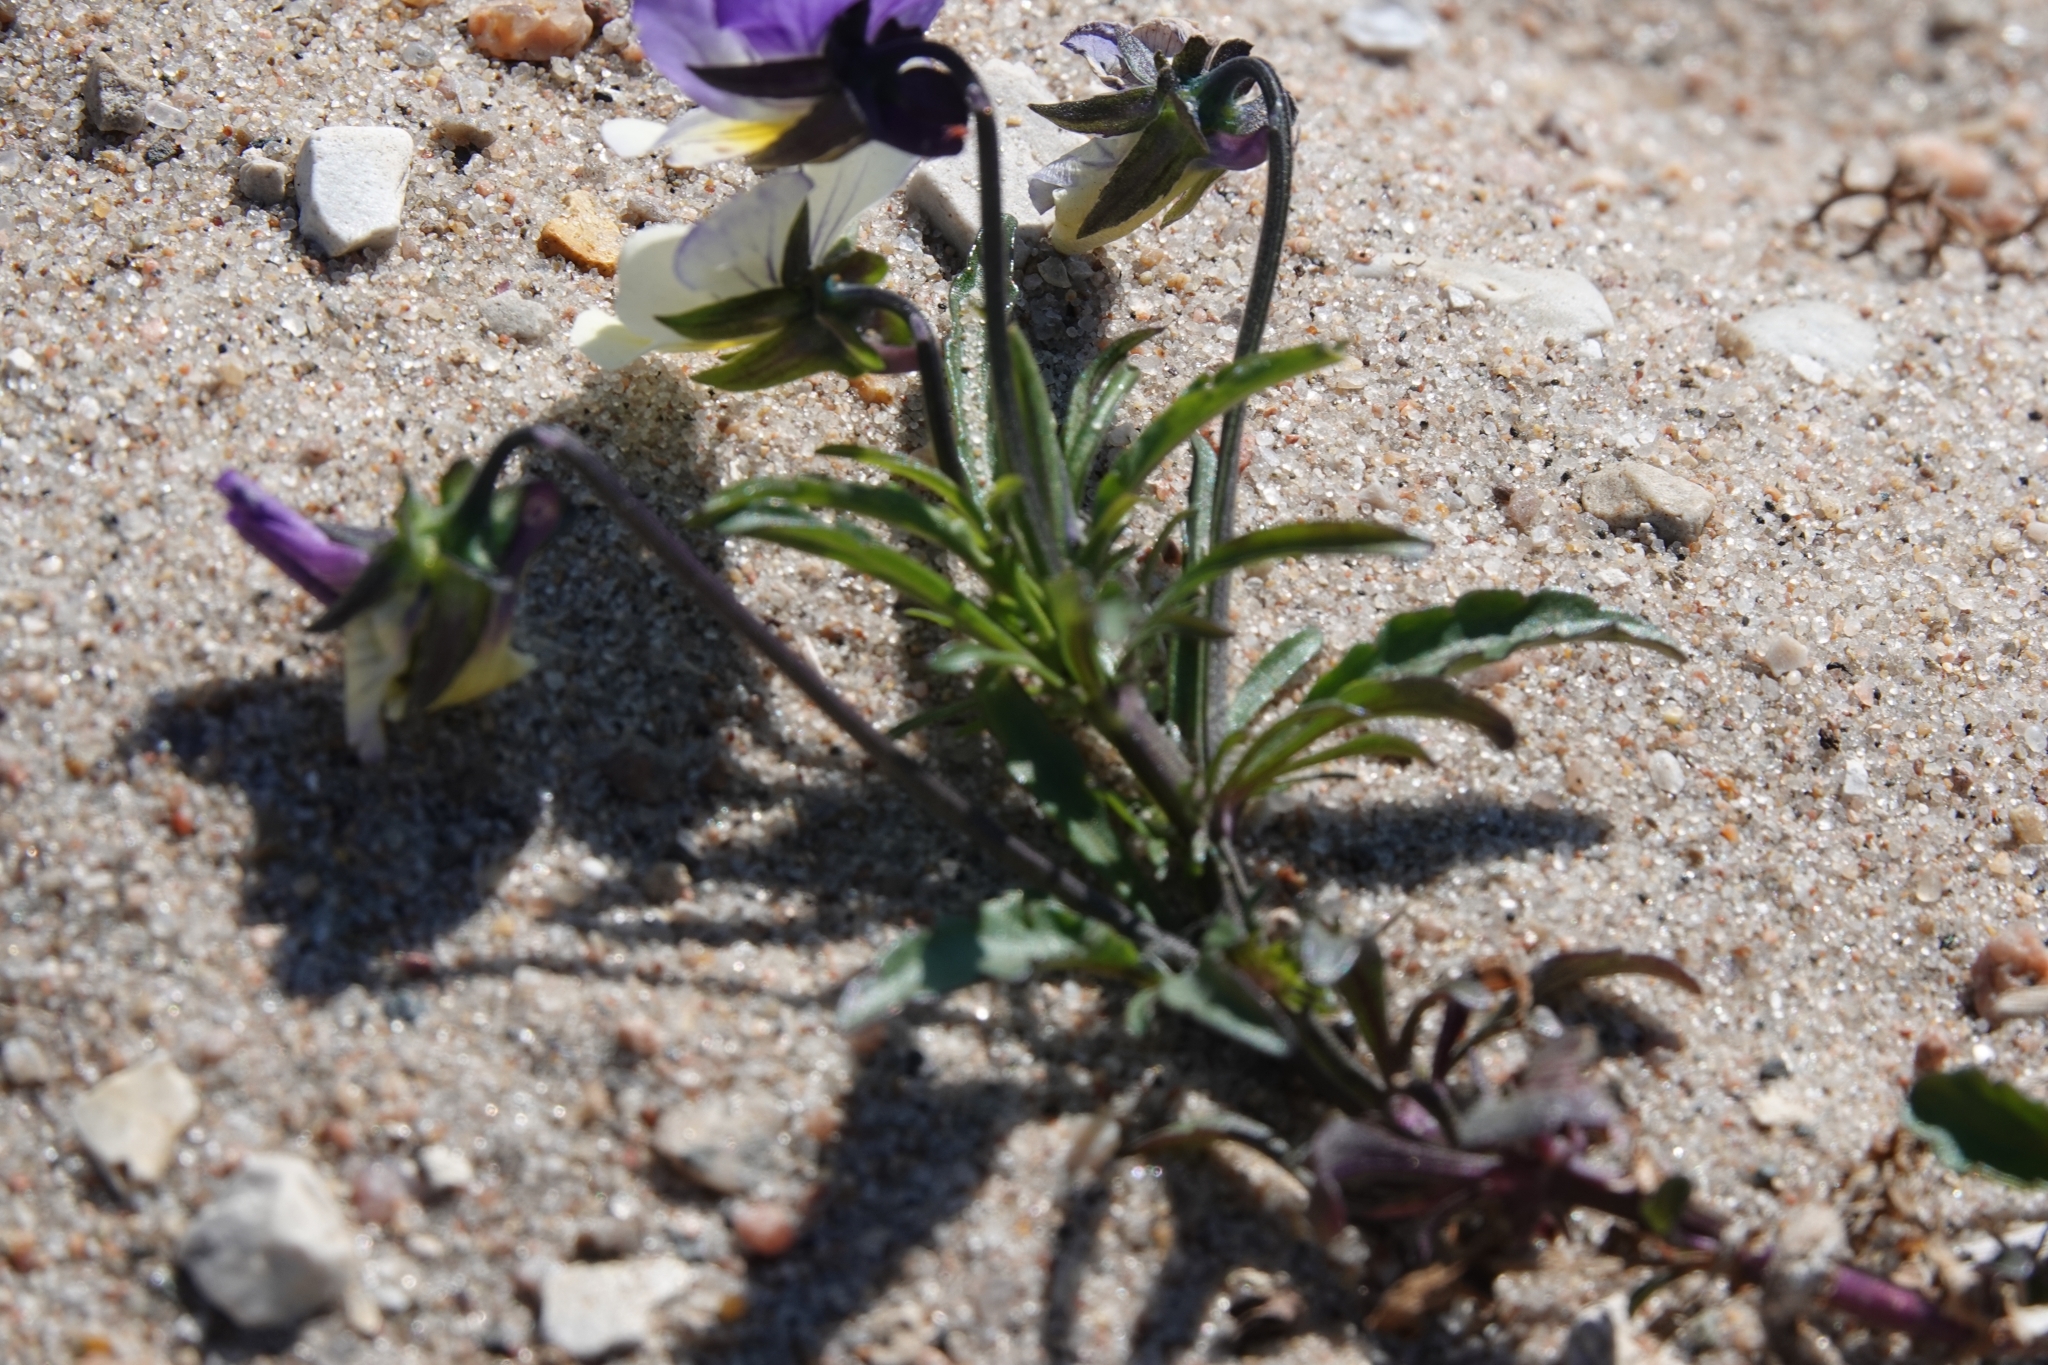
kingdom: Plantae
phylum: Tracheophyta
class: Magnoliopsida
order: Malpighiales
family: Violaceae
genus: Viola
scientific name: Viola tricolor
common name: Pansy
